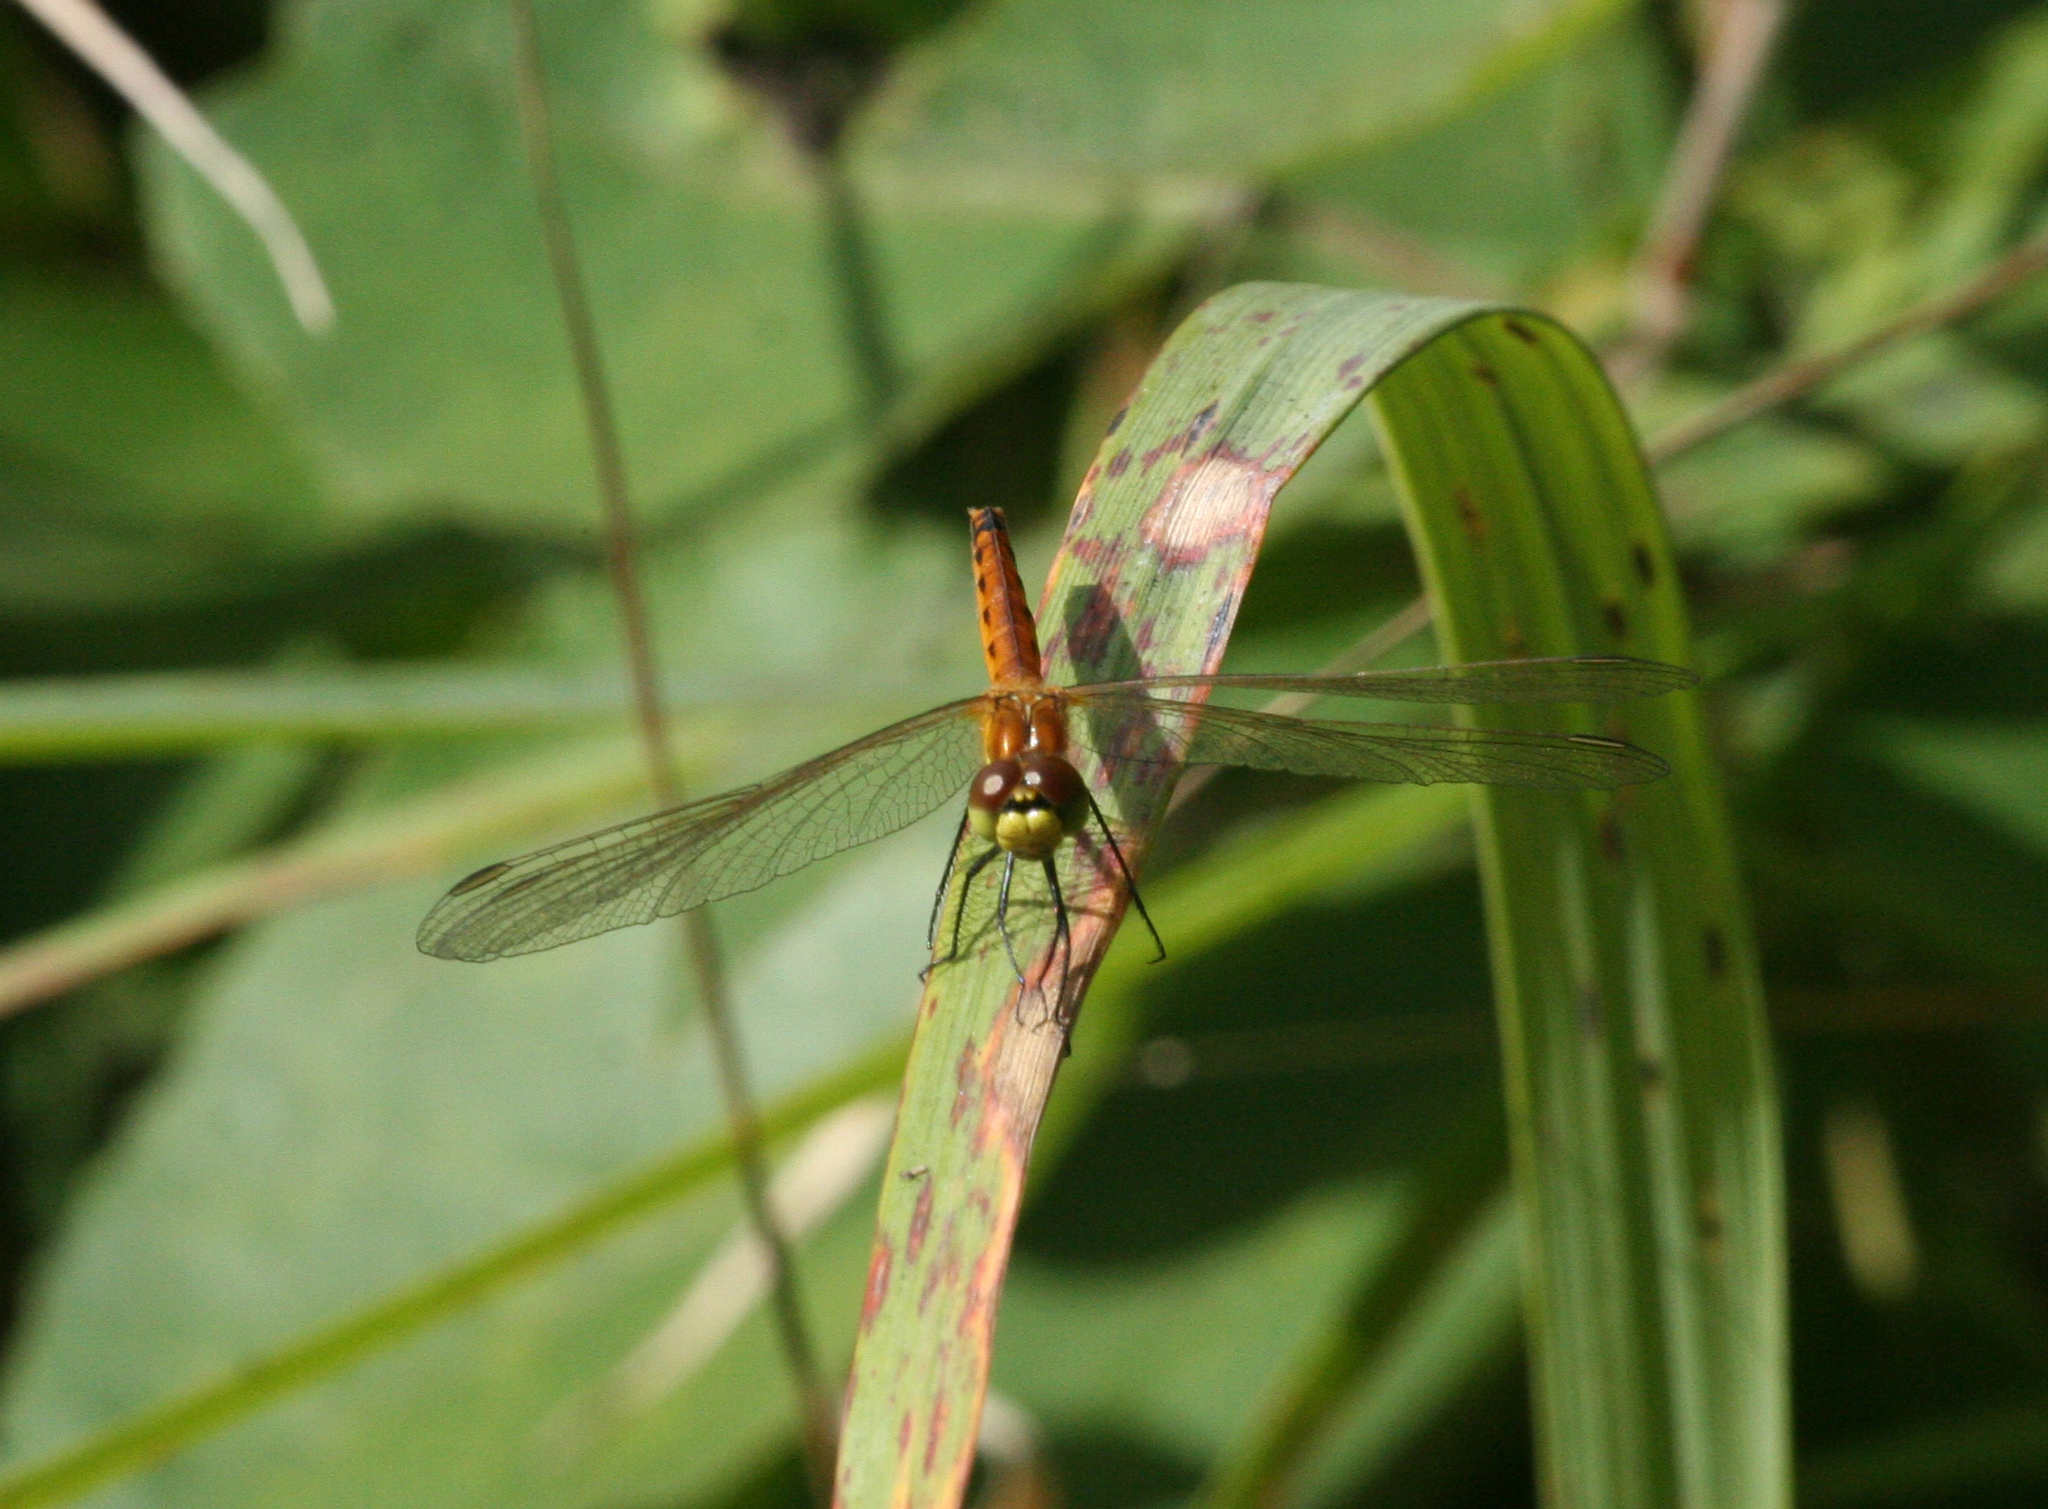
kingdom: Animalia
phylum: Arthropoda
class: Insecta
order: Odonata
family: Libellulidae
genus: Sympetrum
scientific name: Sympetrum depressiusculum
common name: Spotted darter
